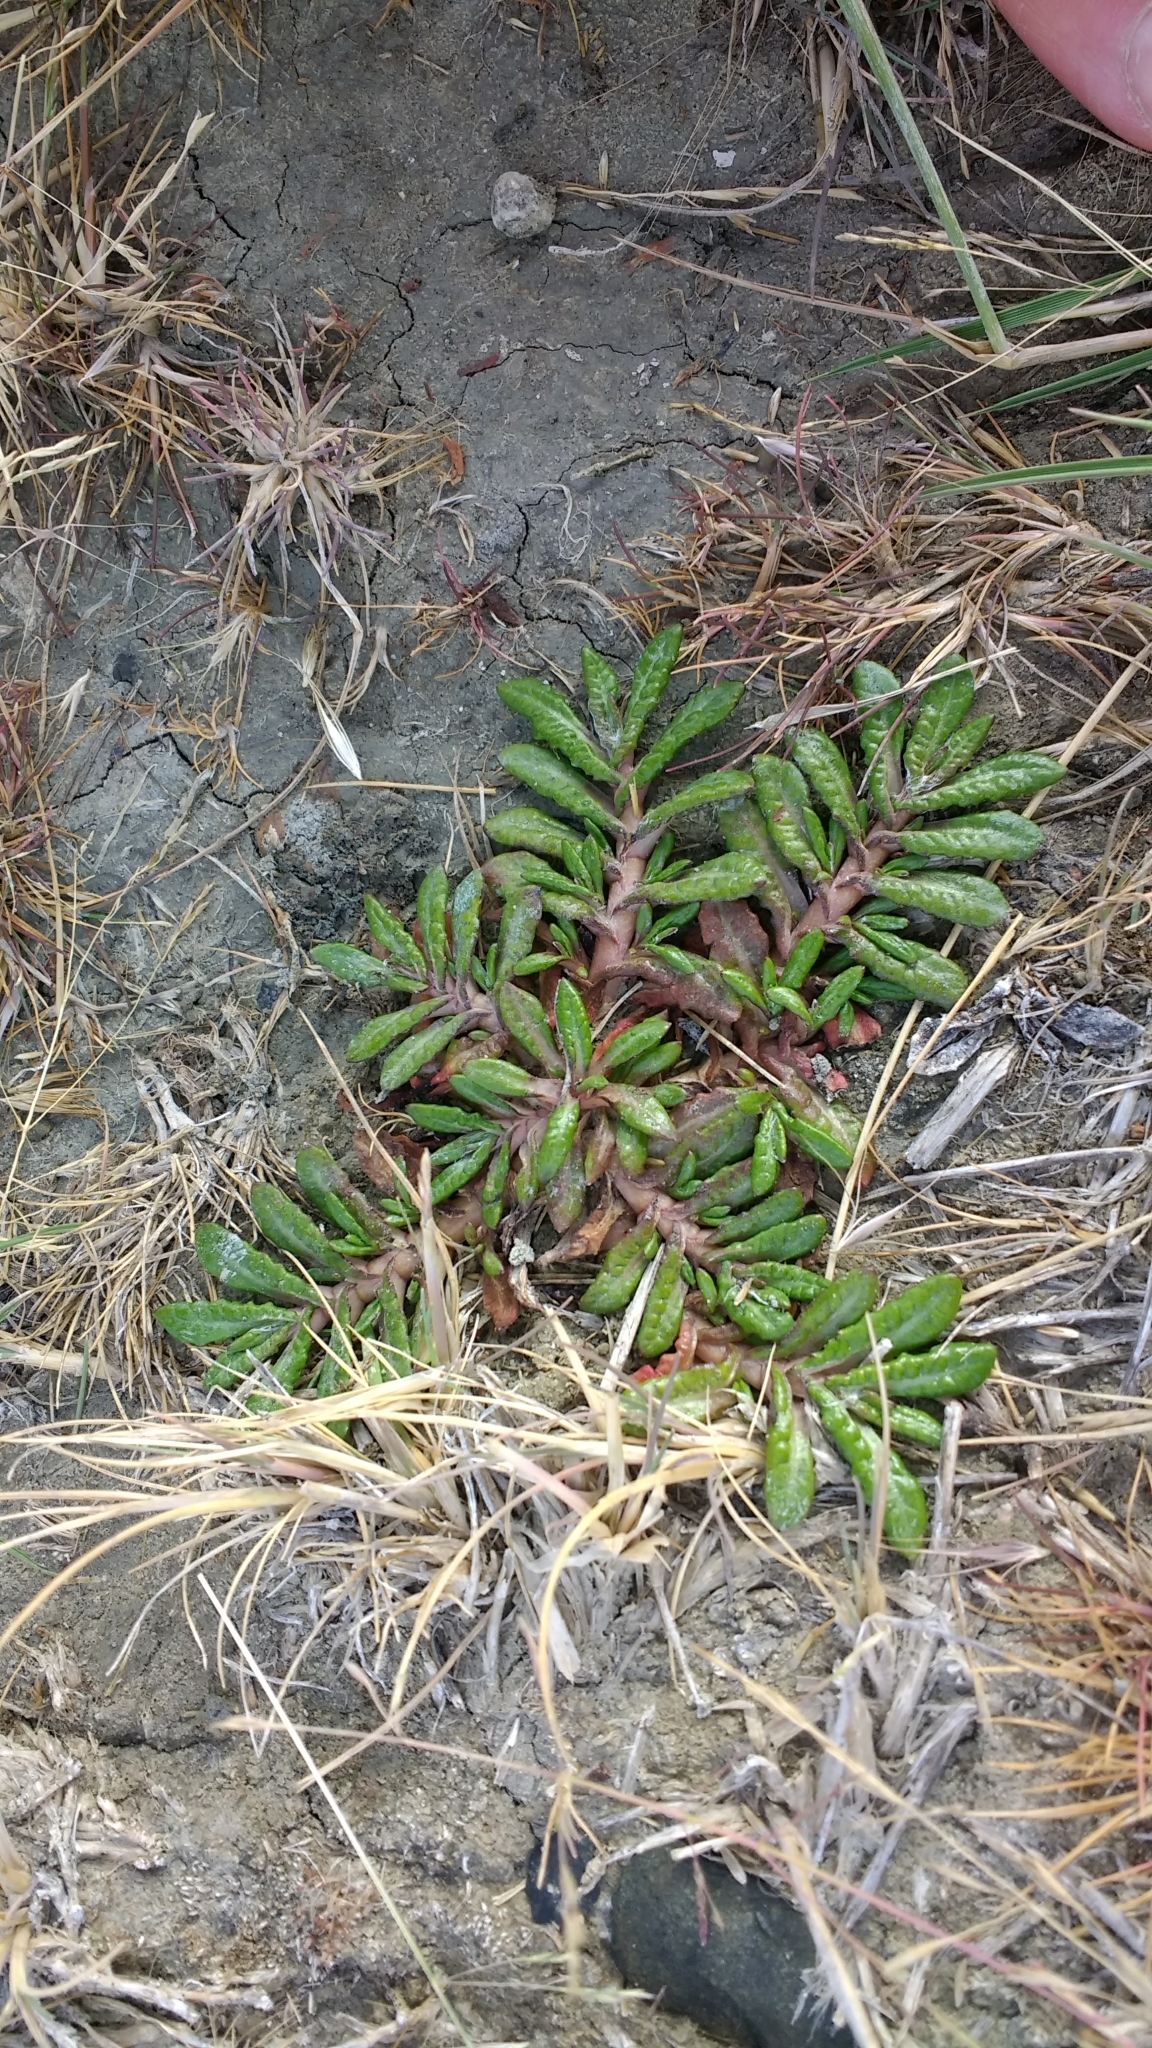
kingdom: Plantae
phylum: Tracheophyta
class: Magnoliopsida
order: Asterales
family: Asteraceae
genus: Eriachaenium
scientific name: Eriachaenium magellanicum
